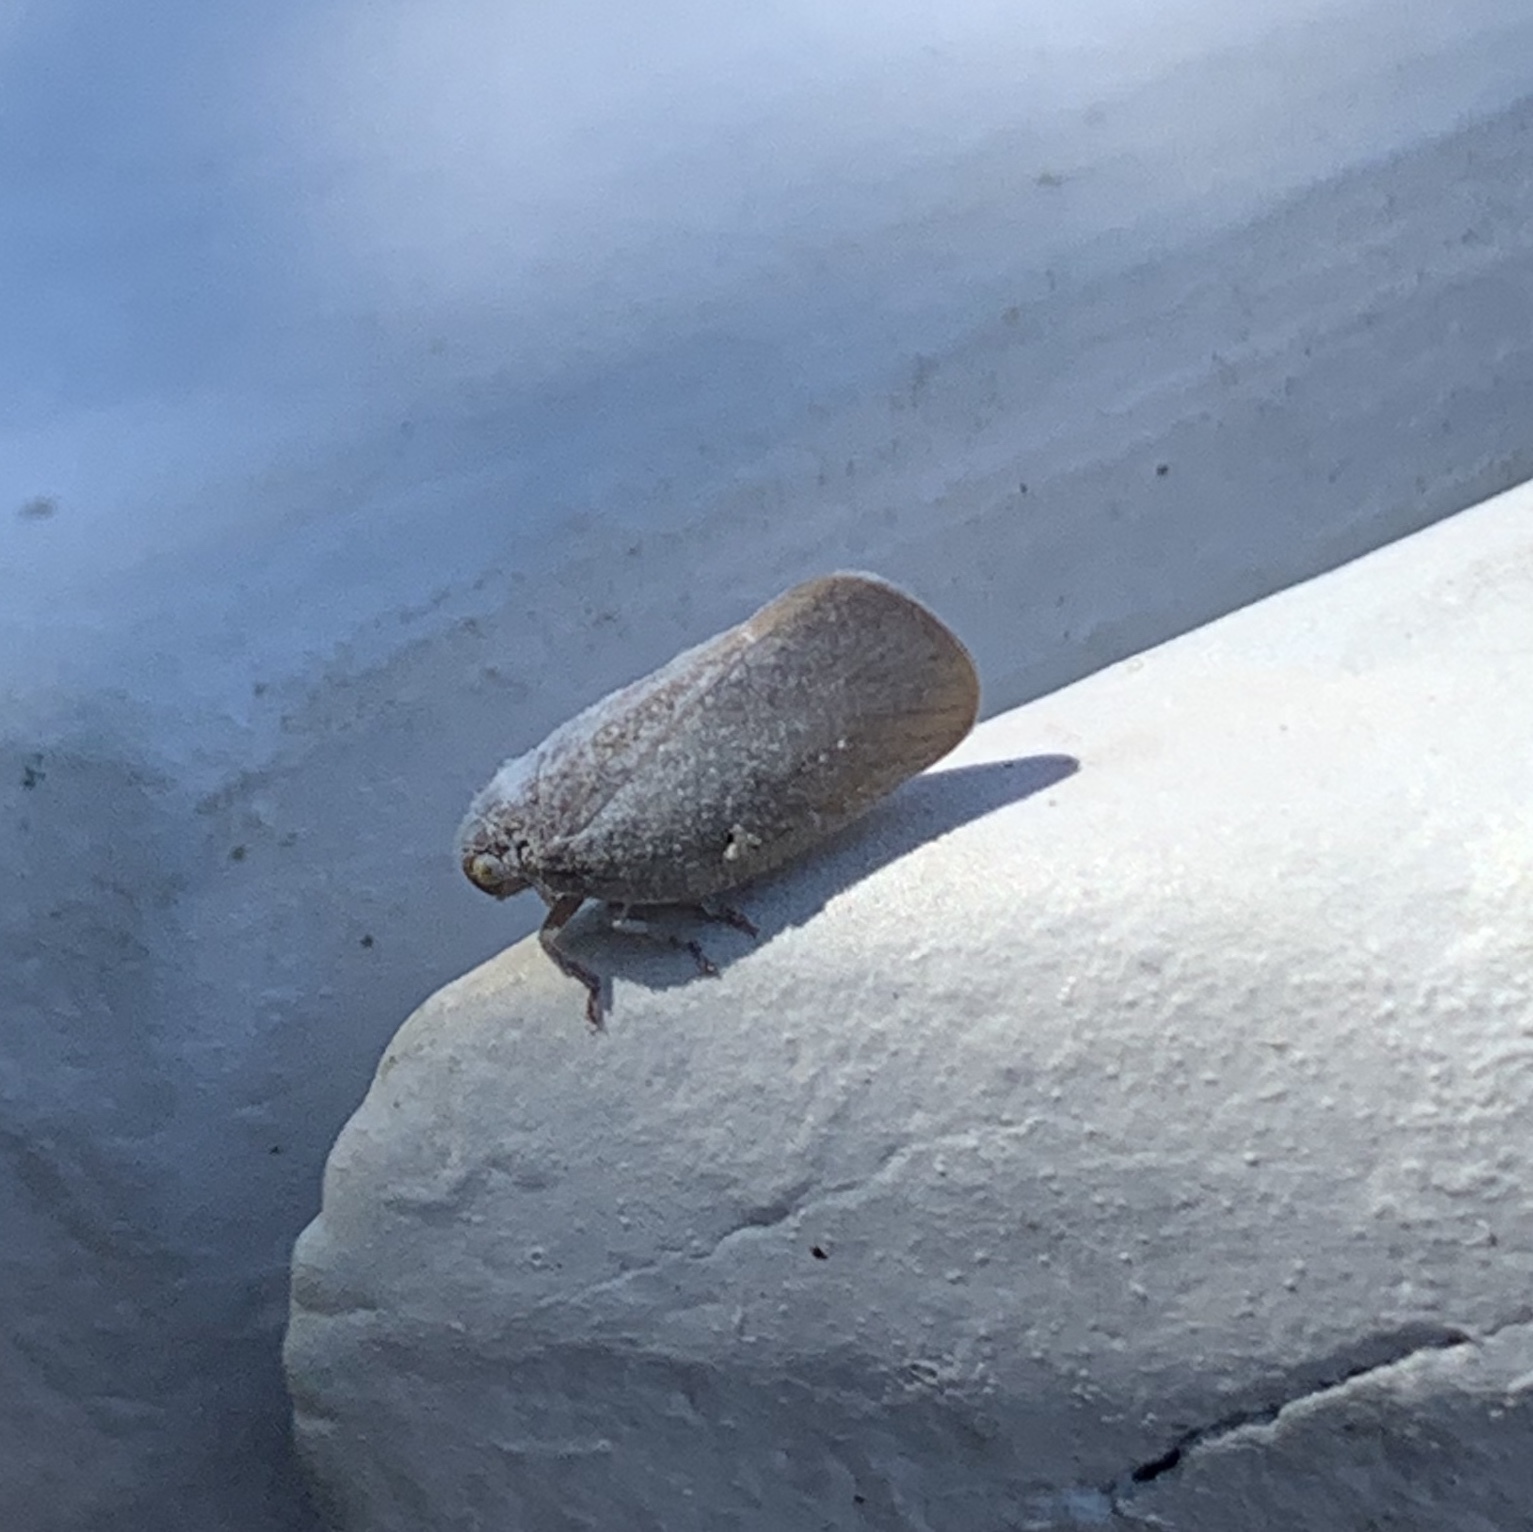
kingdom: Animalia
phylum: Arthropoda
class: Insecta
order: Hemiptera
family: Flatidae
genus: Anzora
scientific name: Anzora unicolor
